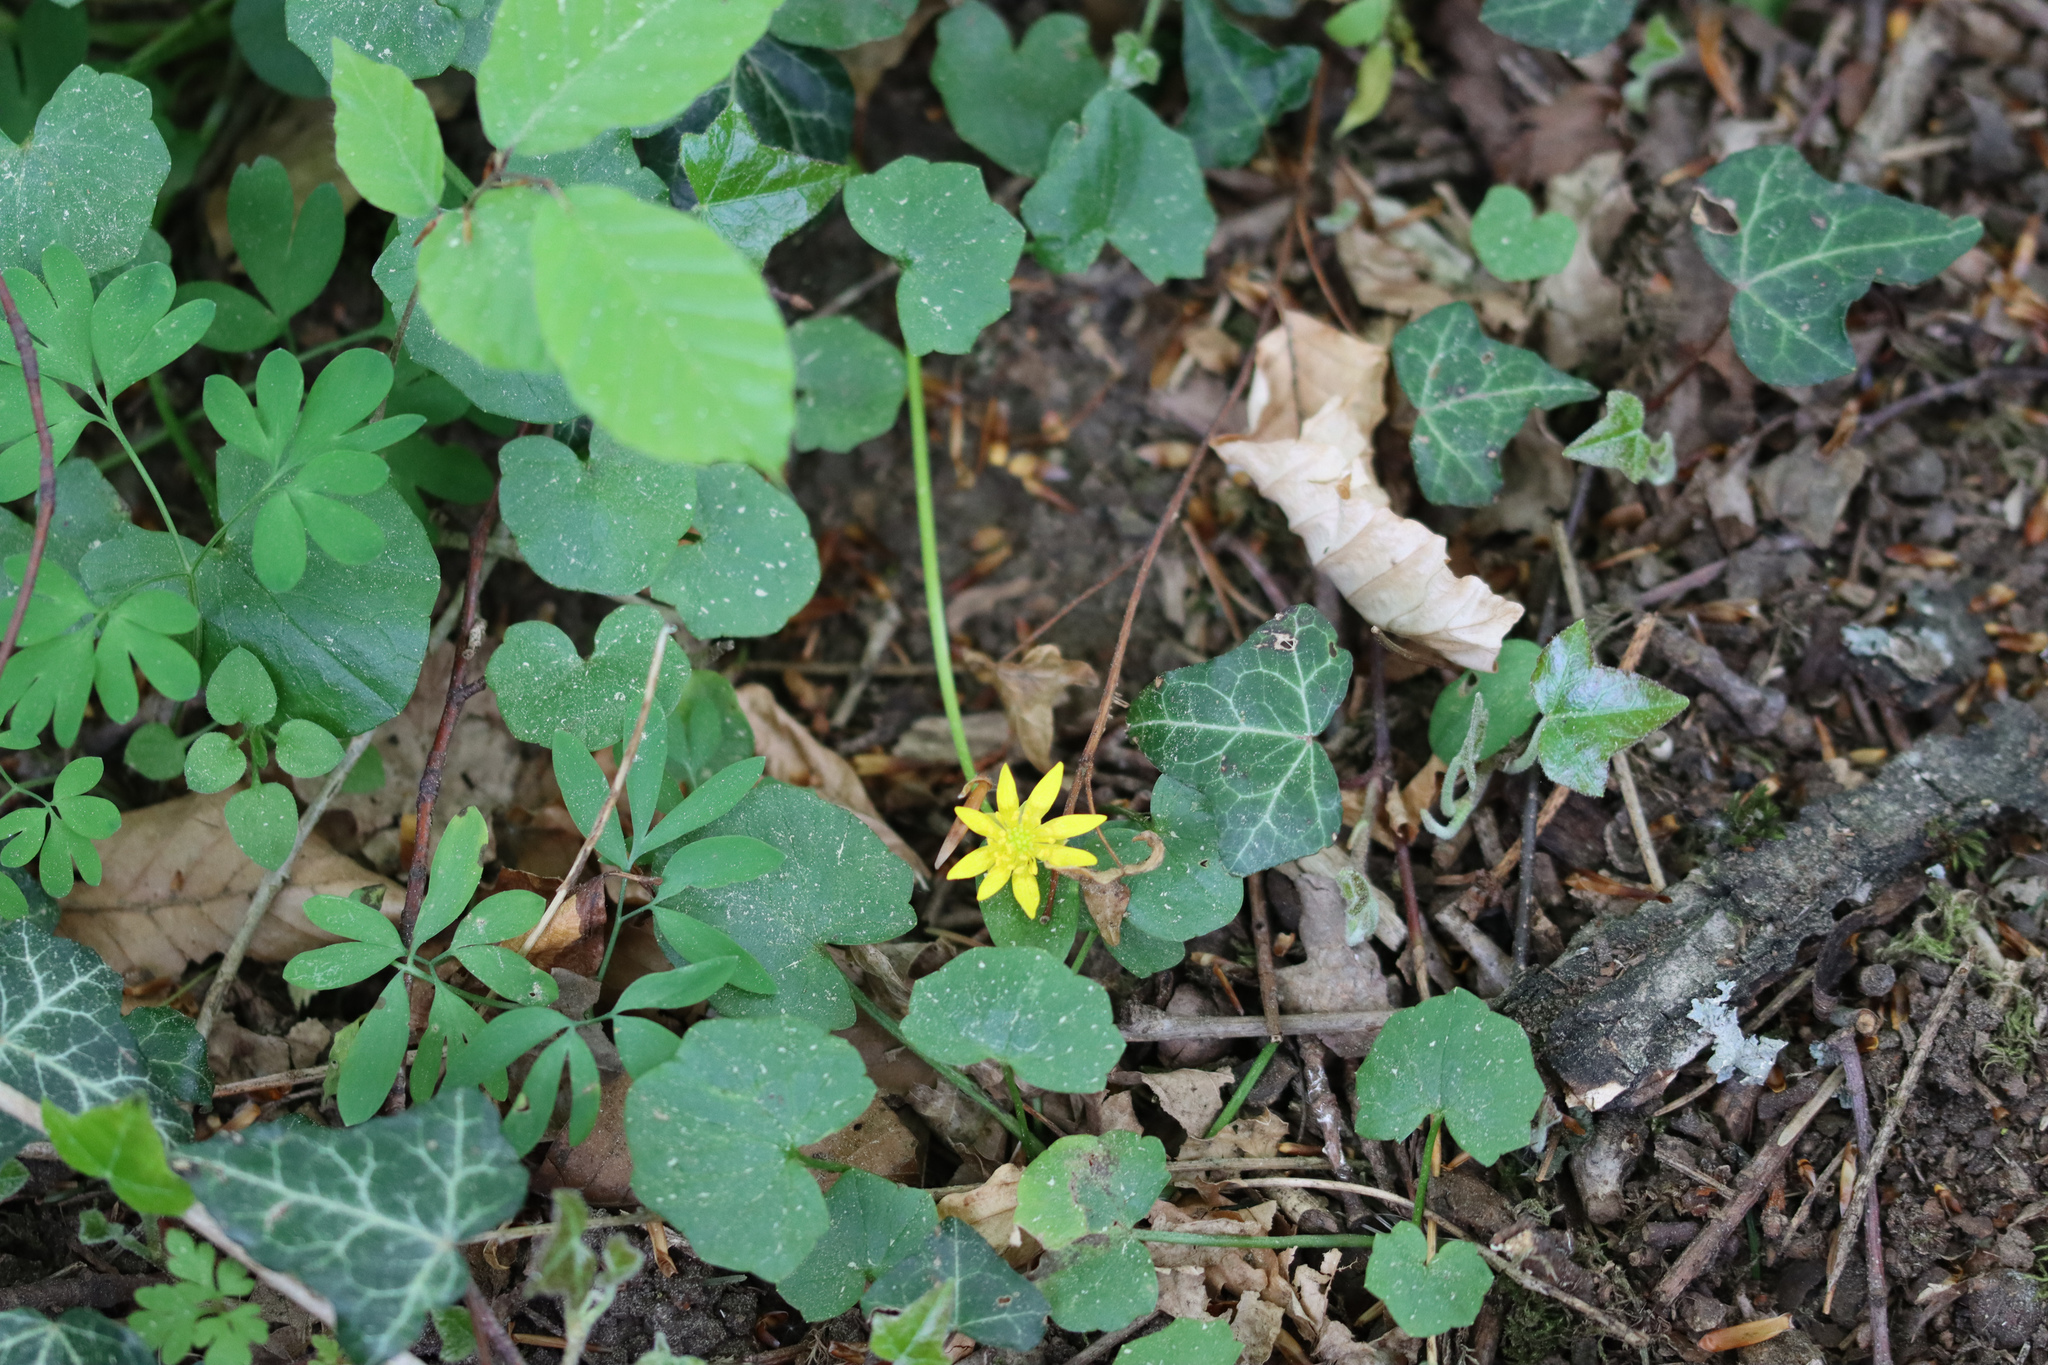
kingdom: Plantae
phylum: Tracheophyta
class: Magnoliopsida
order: Ranunculales
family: Ranunculaceae
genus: Ficaria
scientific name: Ficaria verna
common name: Lesser celandine
